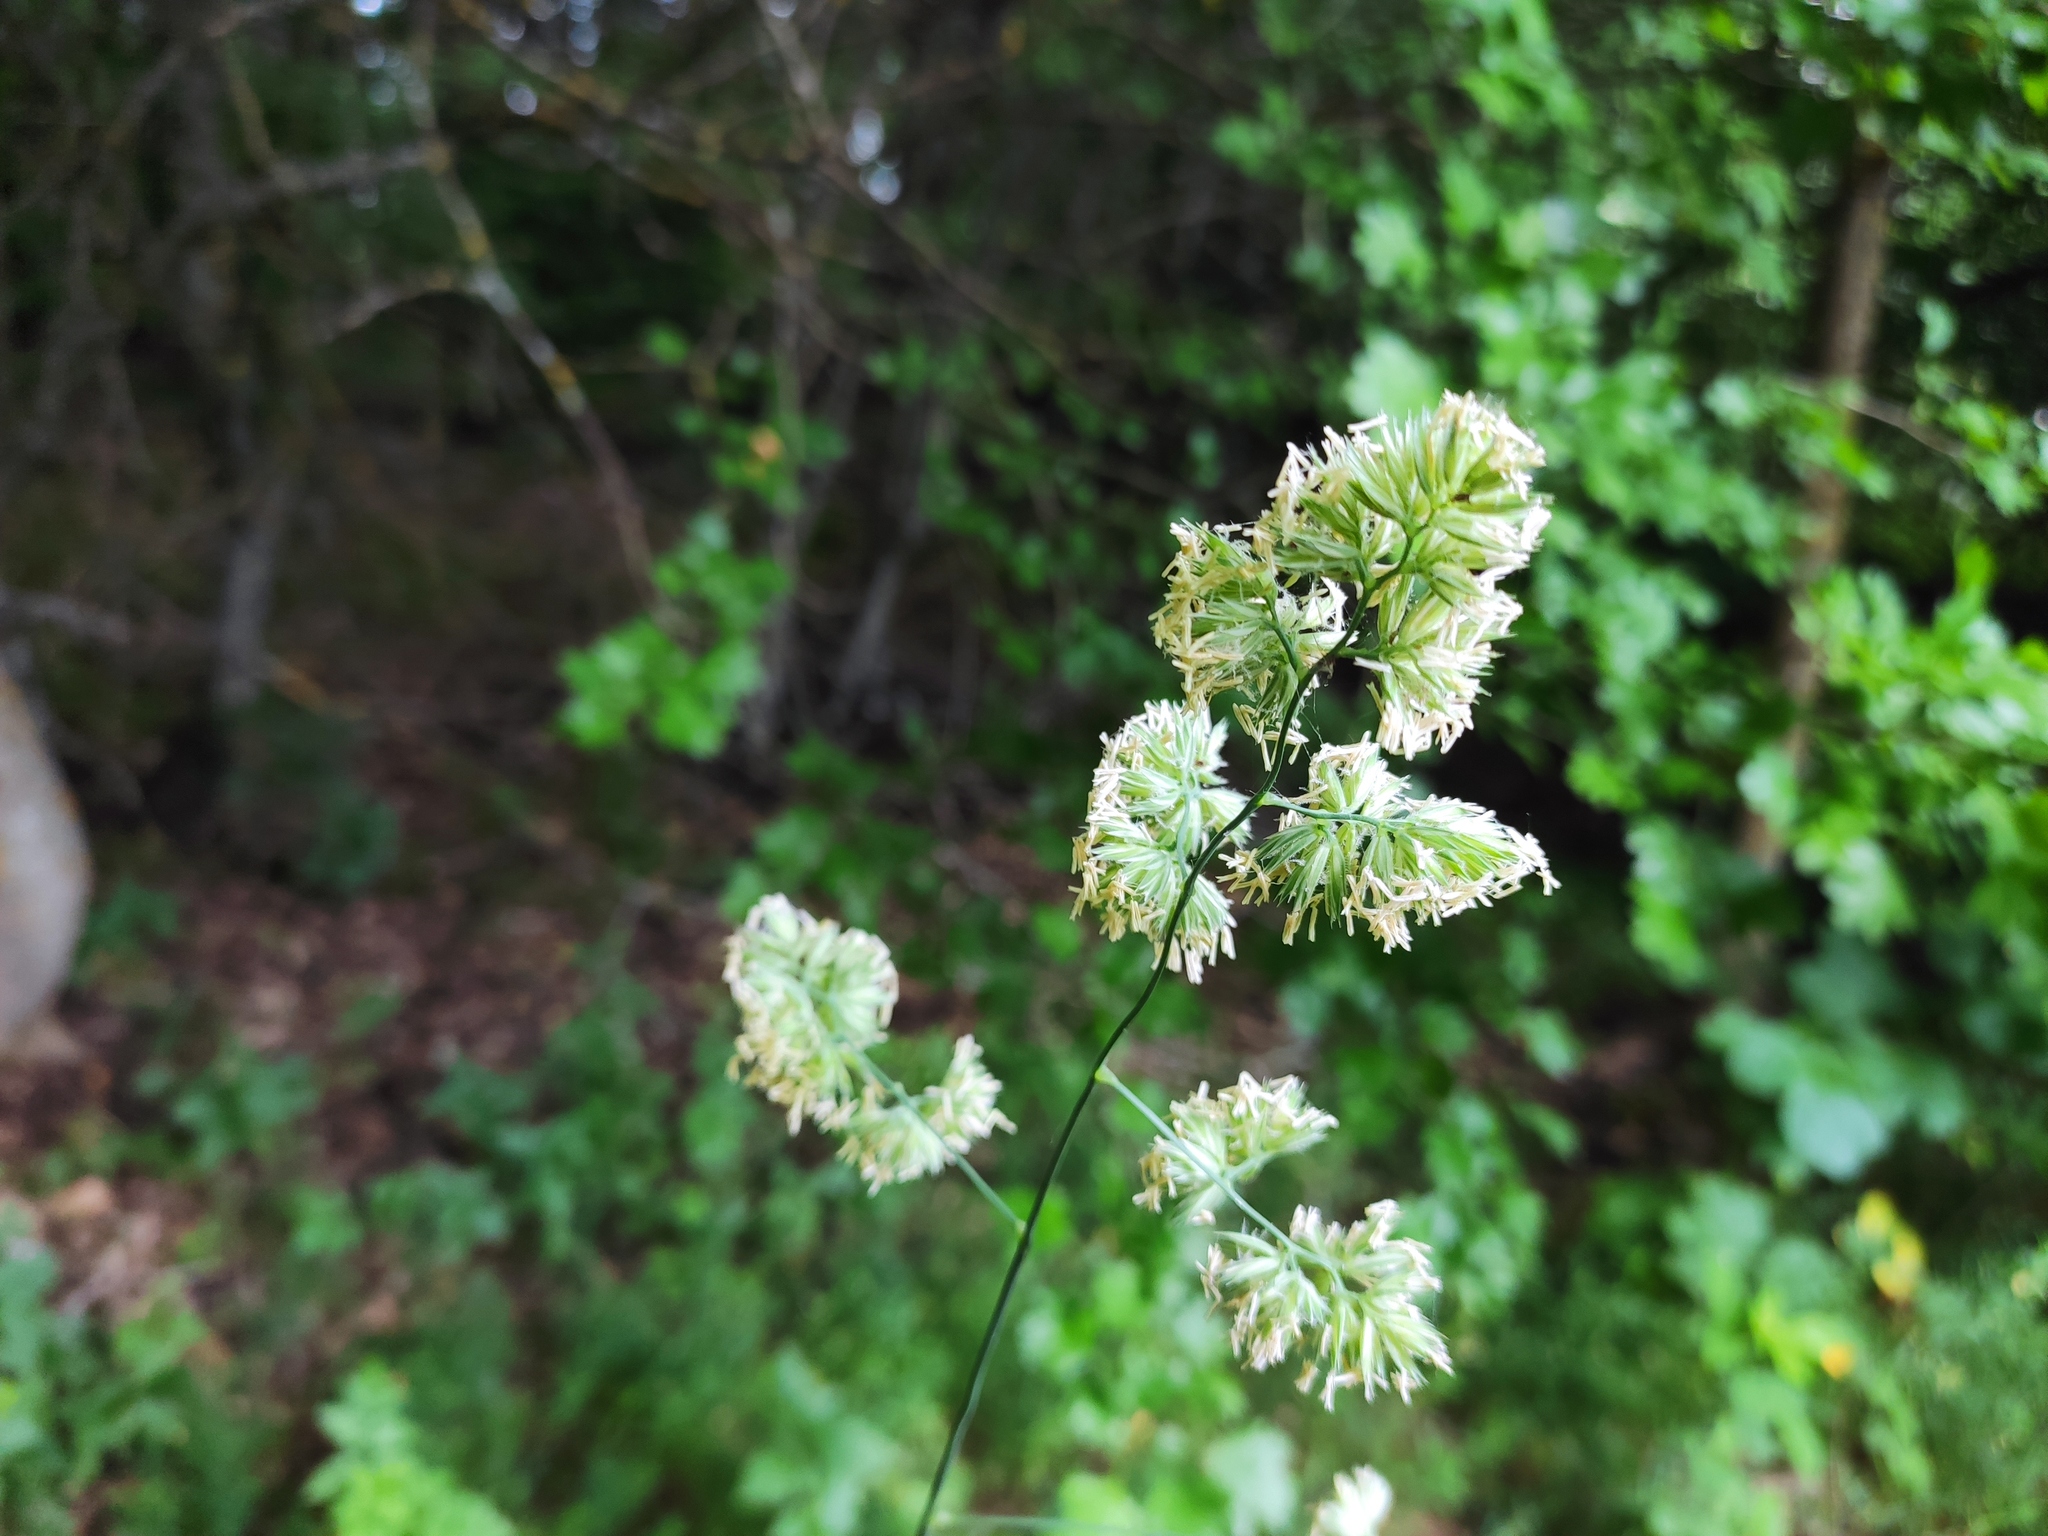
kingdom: Plantae
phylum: Tracheophyta
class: Liliopsida
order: Poales
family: Poaceae
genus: Dactylis
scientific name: Dactylis glomerata
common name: Orchardgrass
